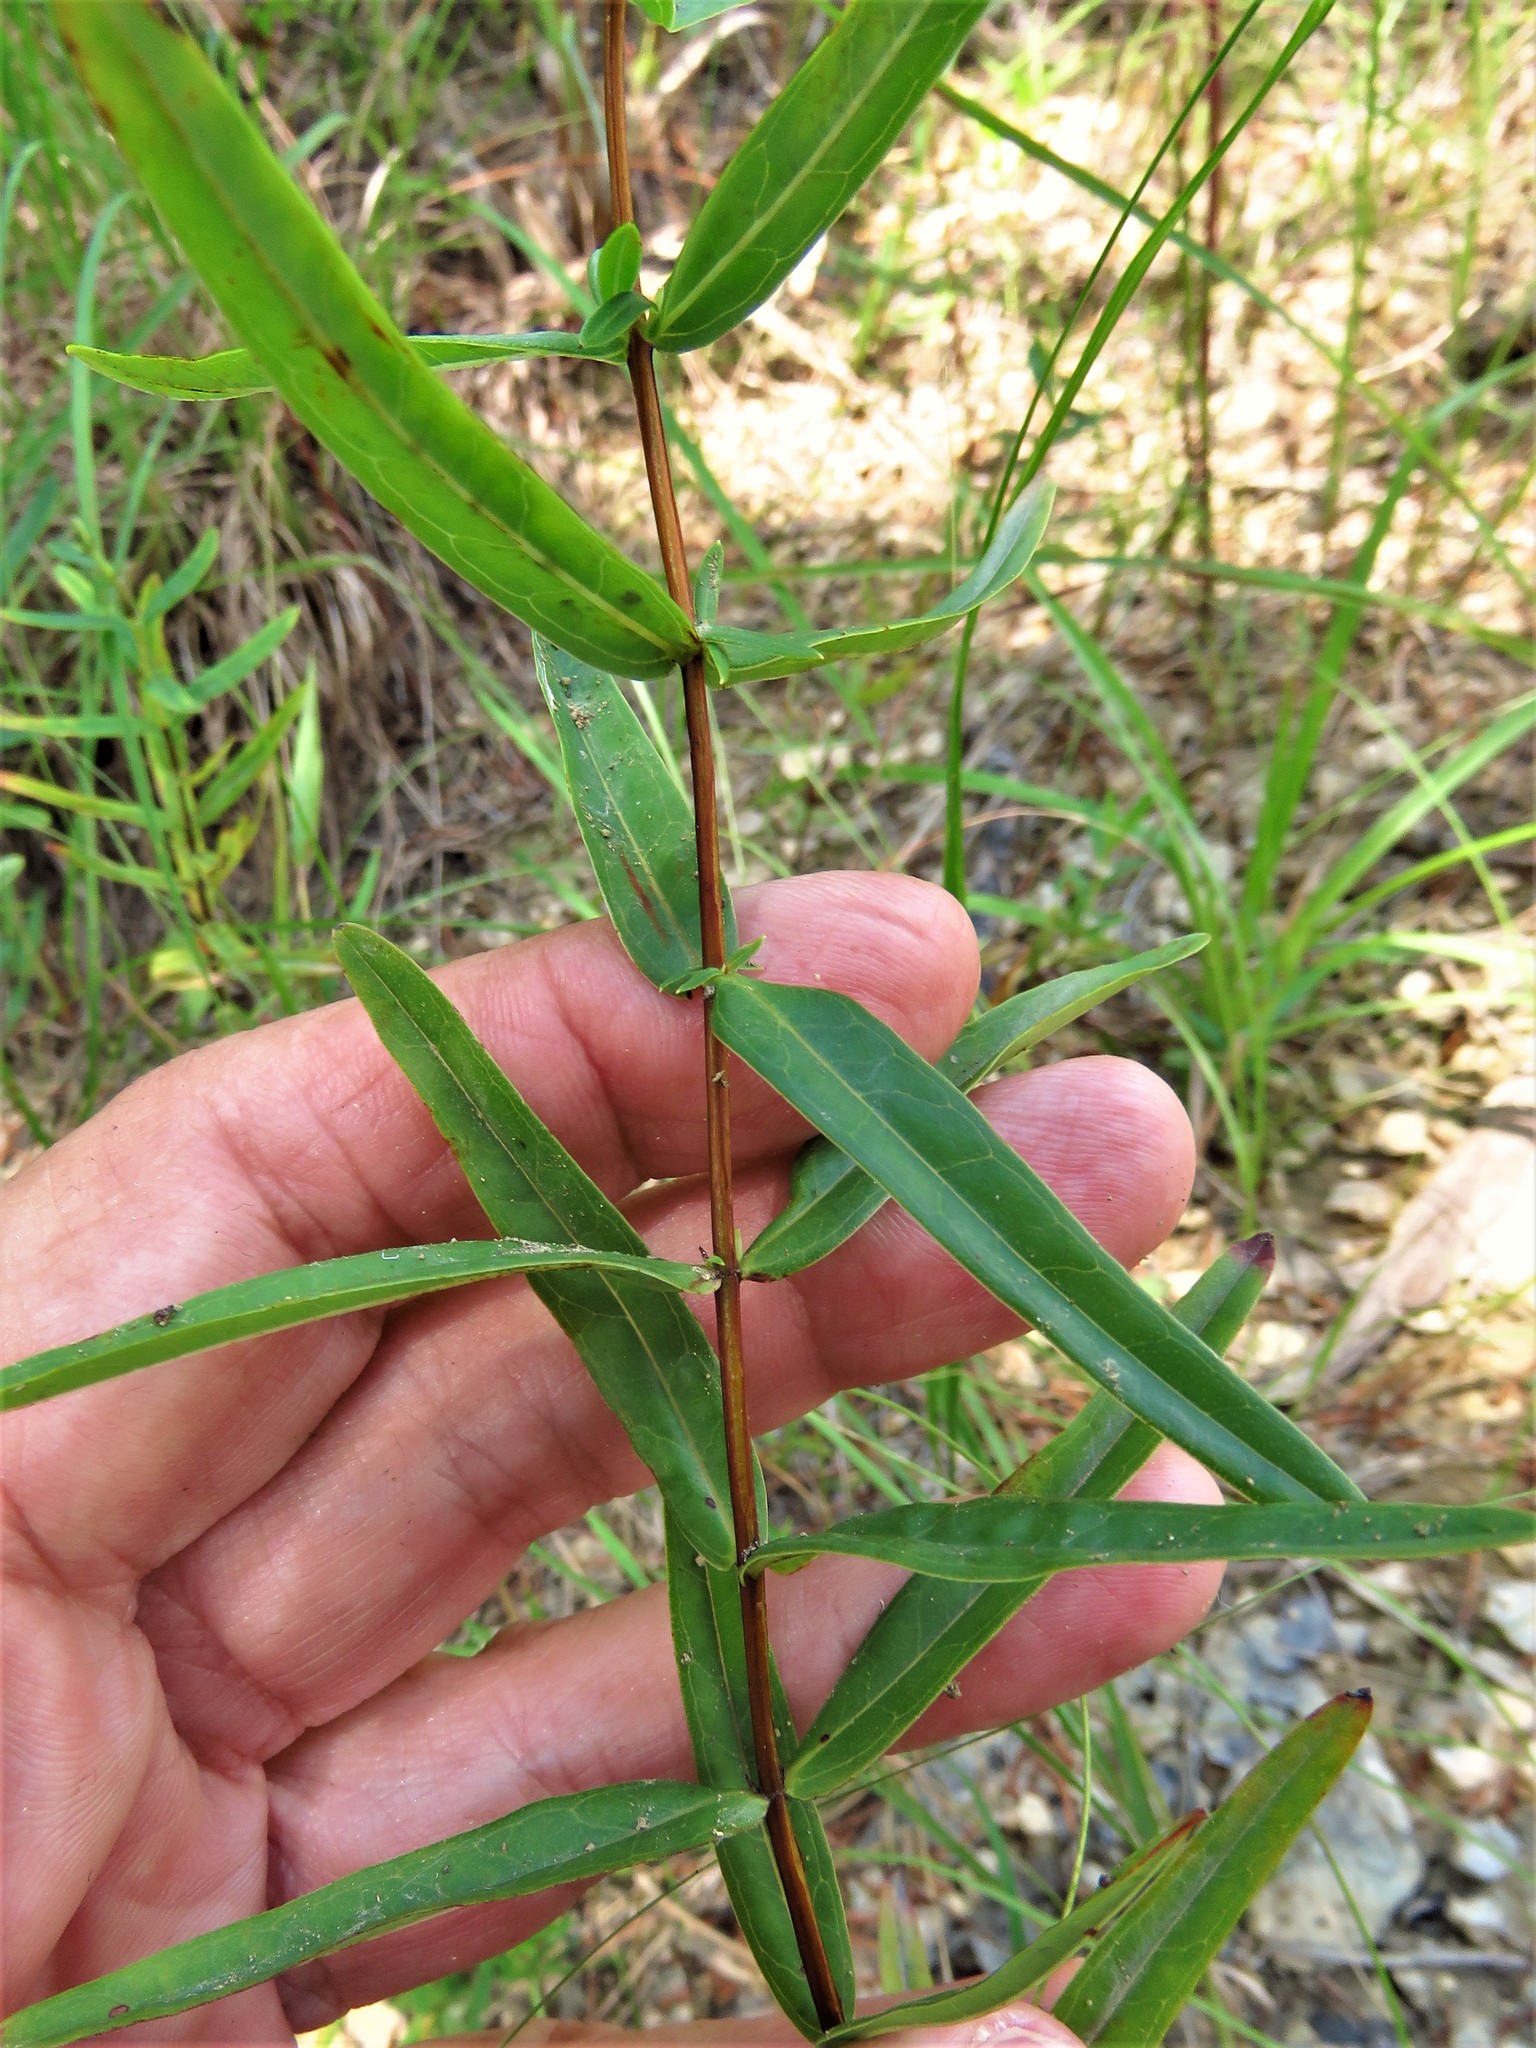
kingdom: Plantae
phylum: Tracheophyta
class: Magnoliopsida
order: Malpighiales
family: Hypericaceae
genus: Hypericum
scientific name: Hypericum sphaerocarpum
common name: Round-fruited st. john's-wort
